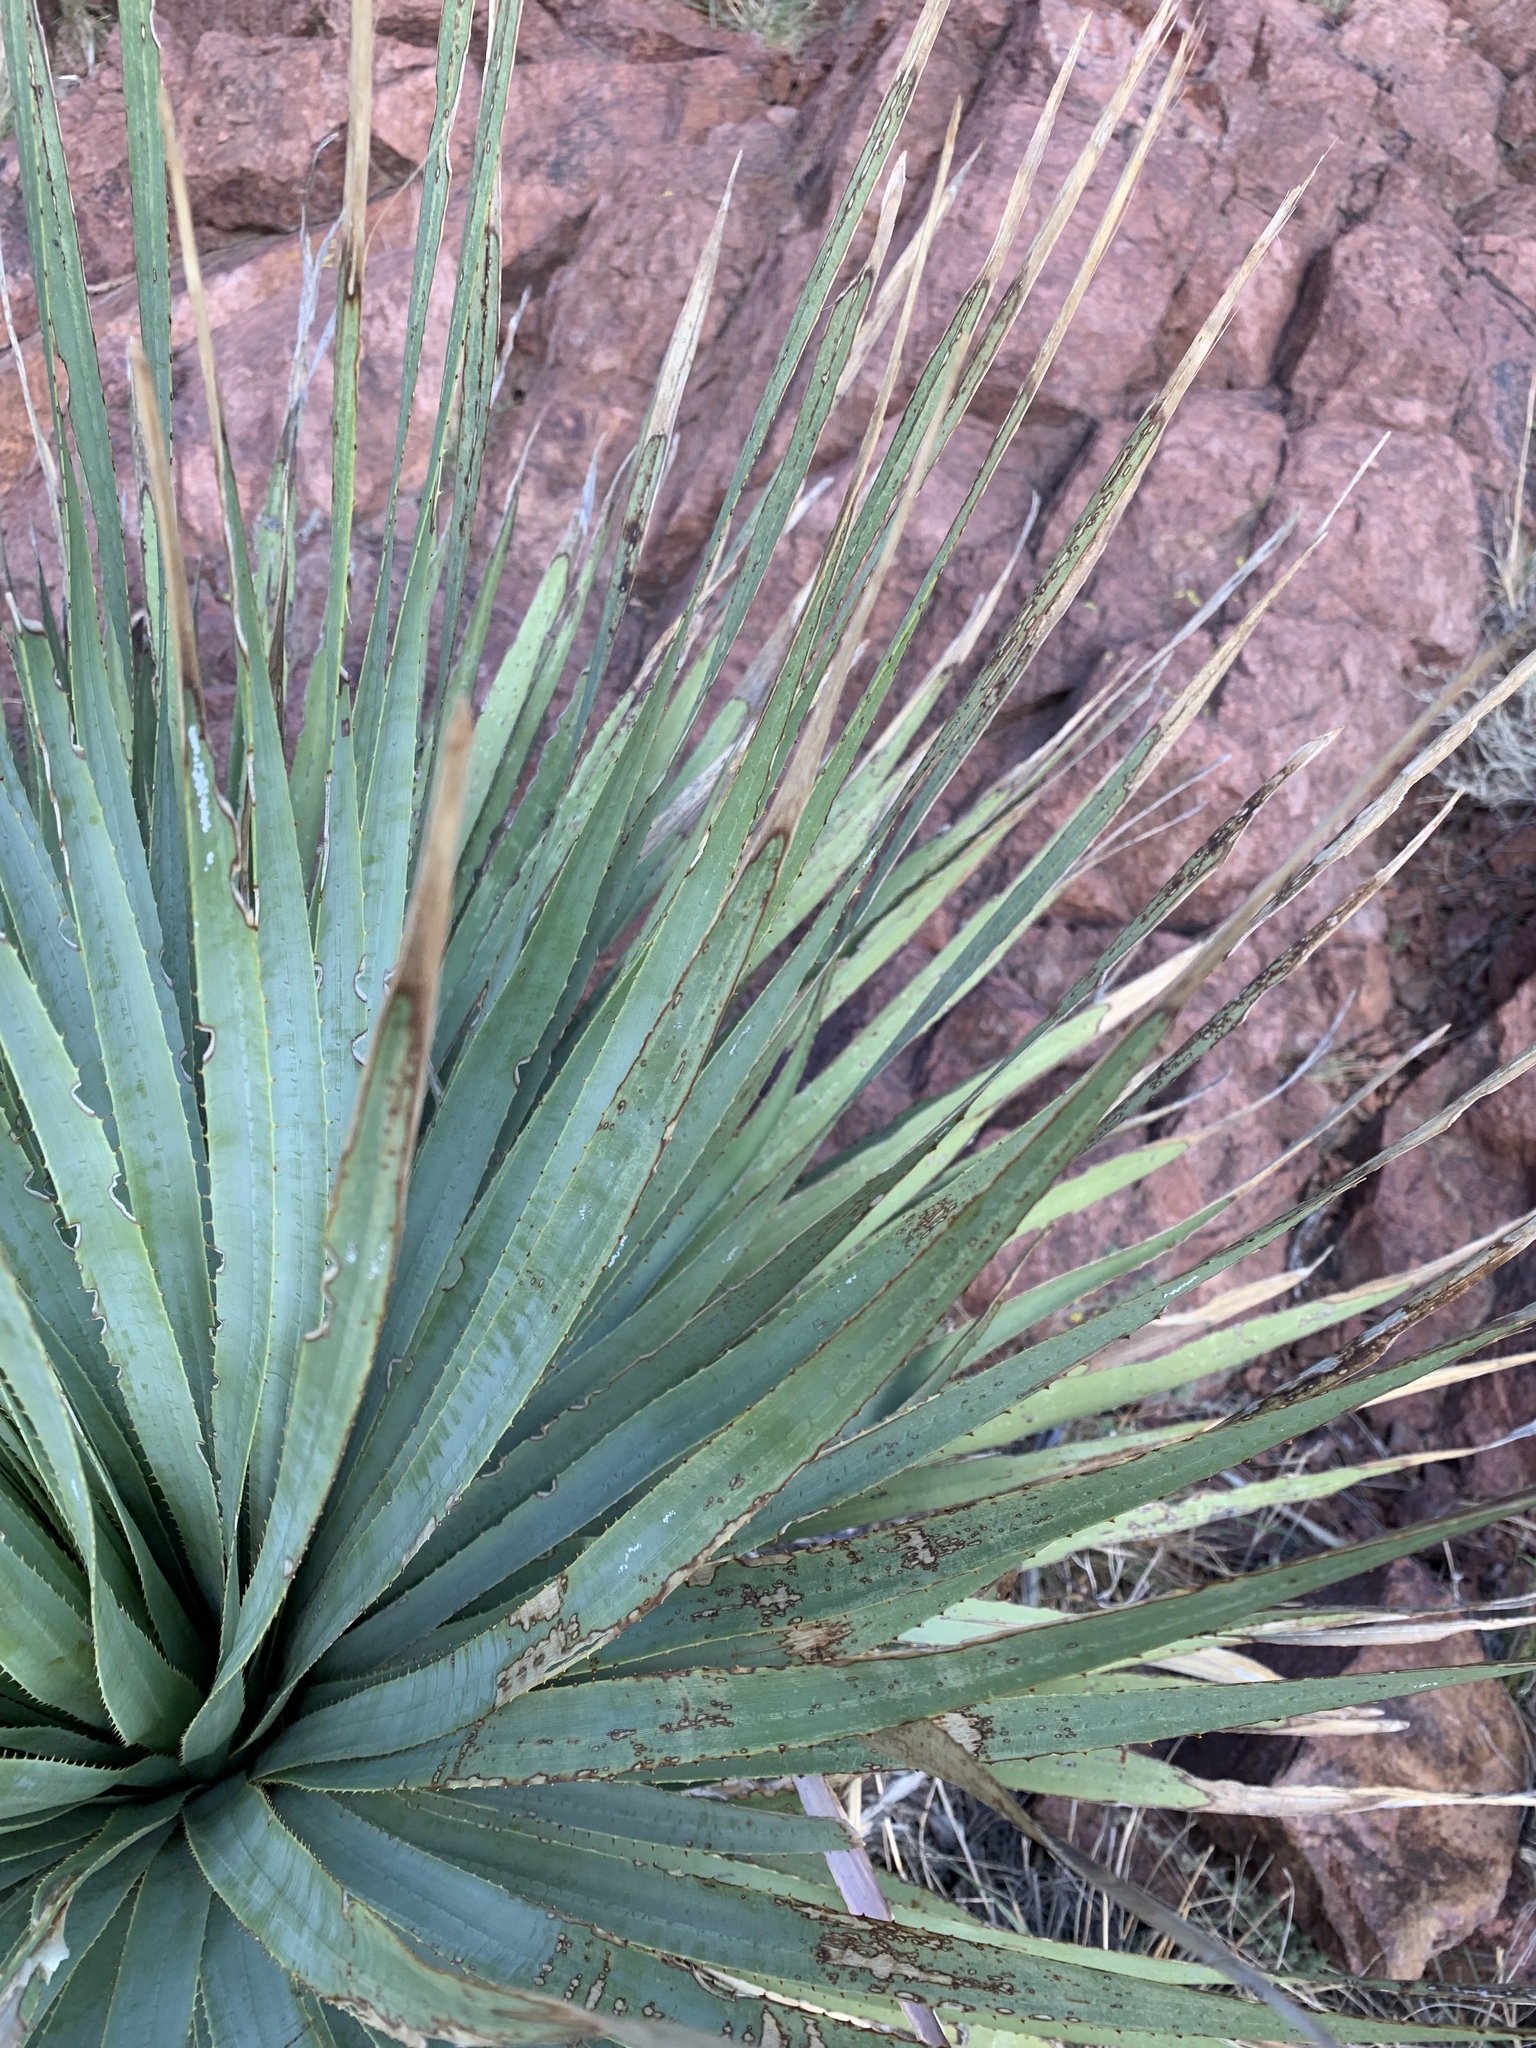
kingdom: Plantae
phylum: Tracheophyta
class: Liliopsida
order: Asparagales
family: Asparagaceae
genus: Dasylirion
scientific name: Dasylirion wheeleri
